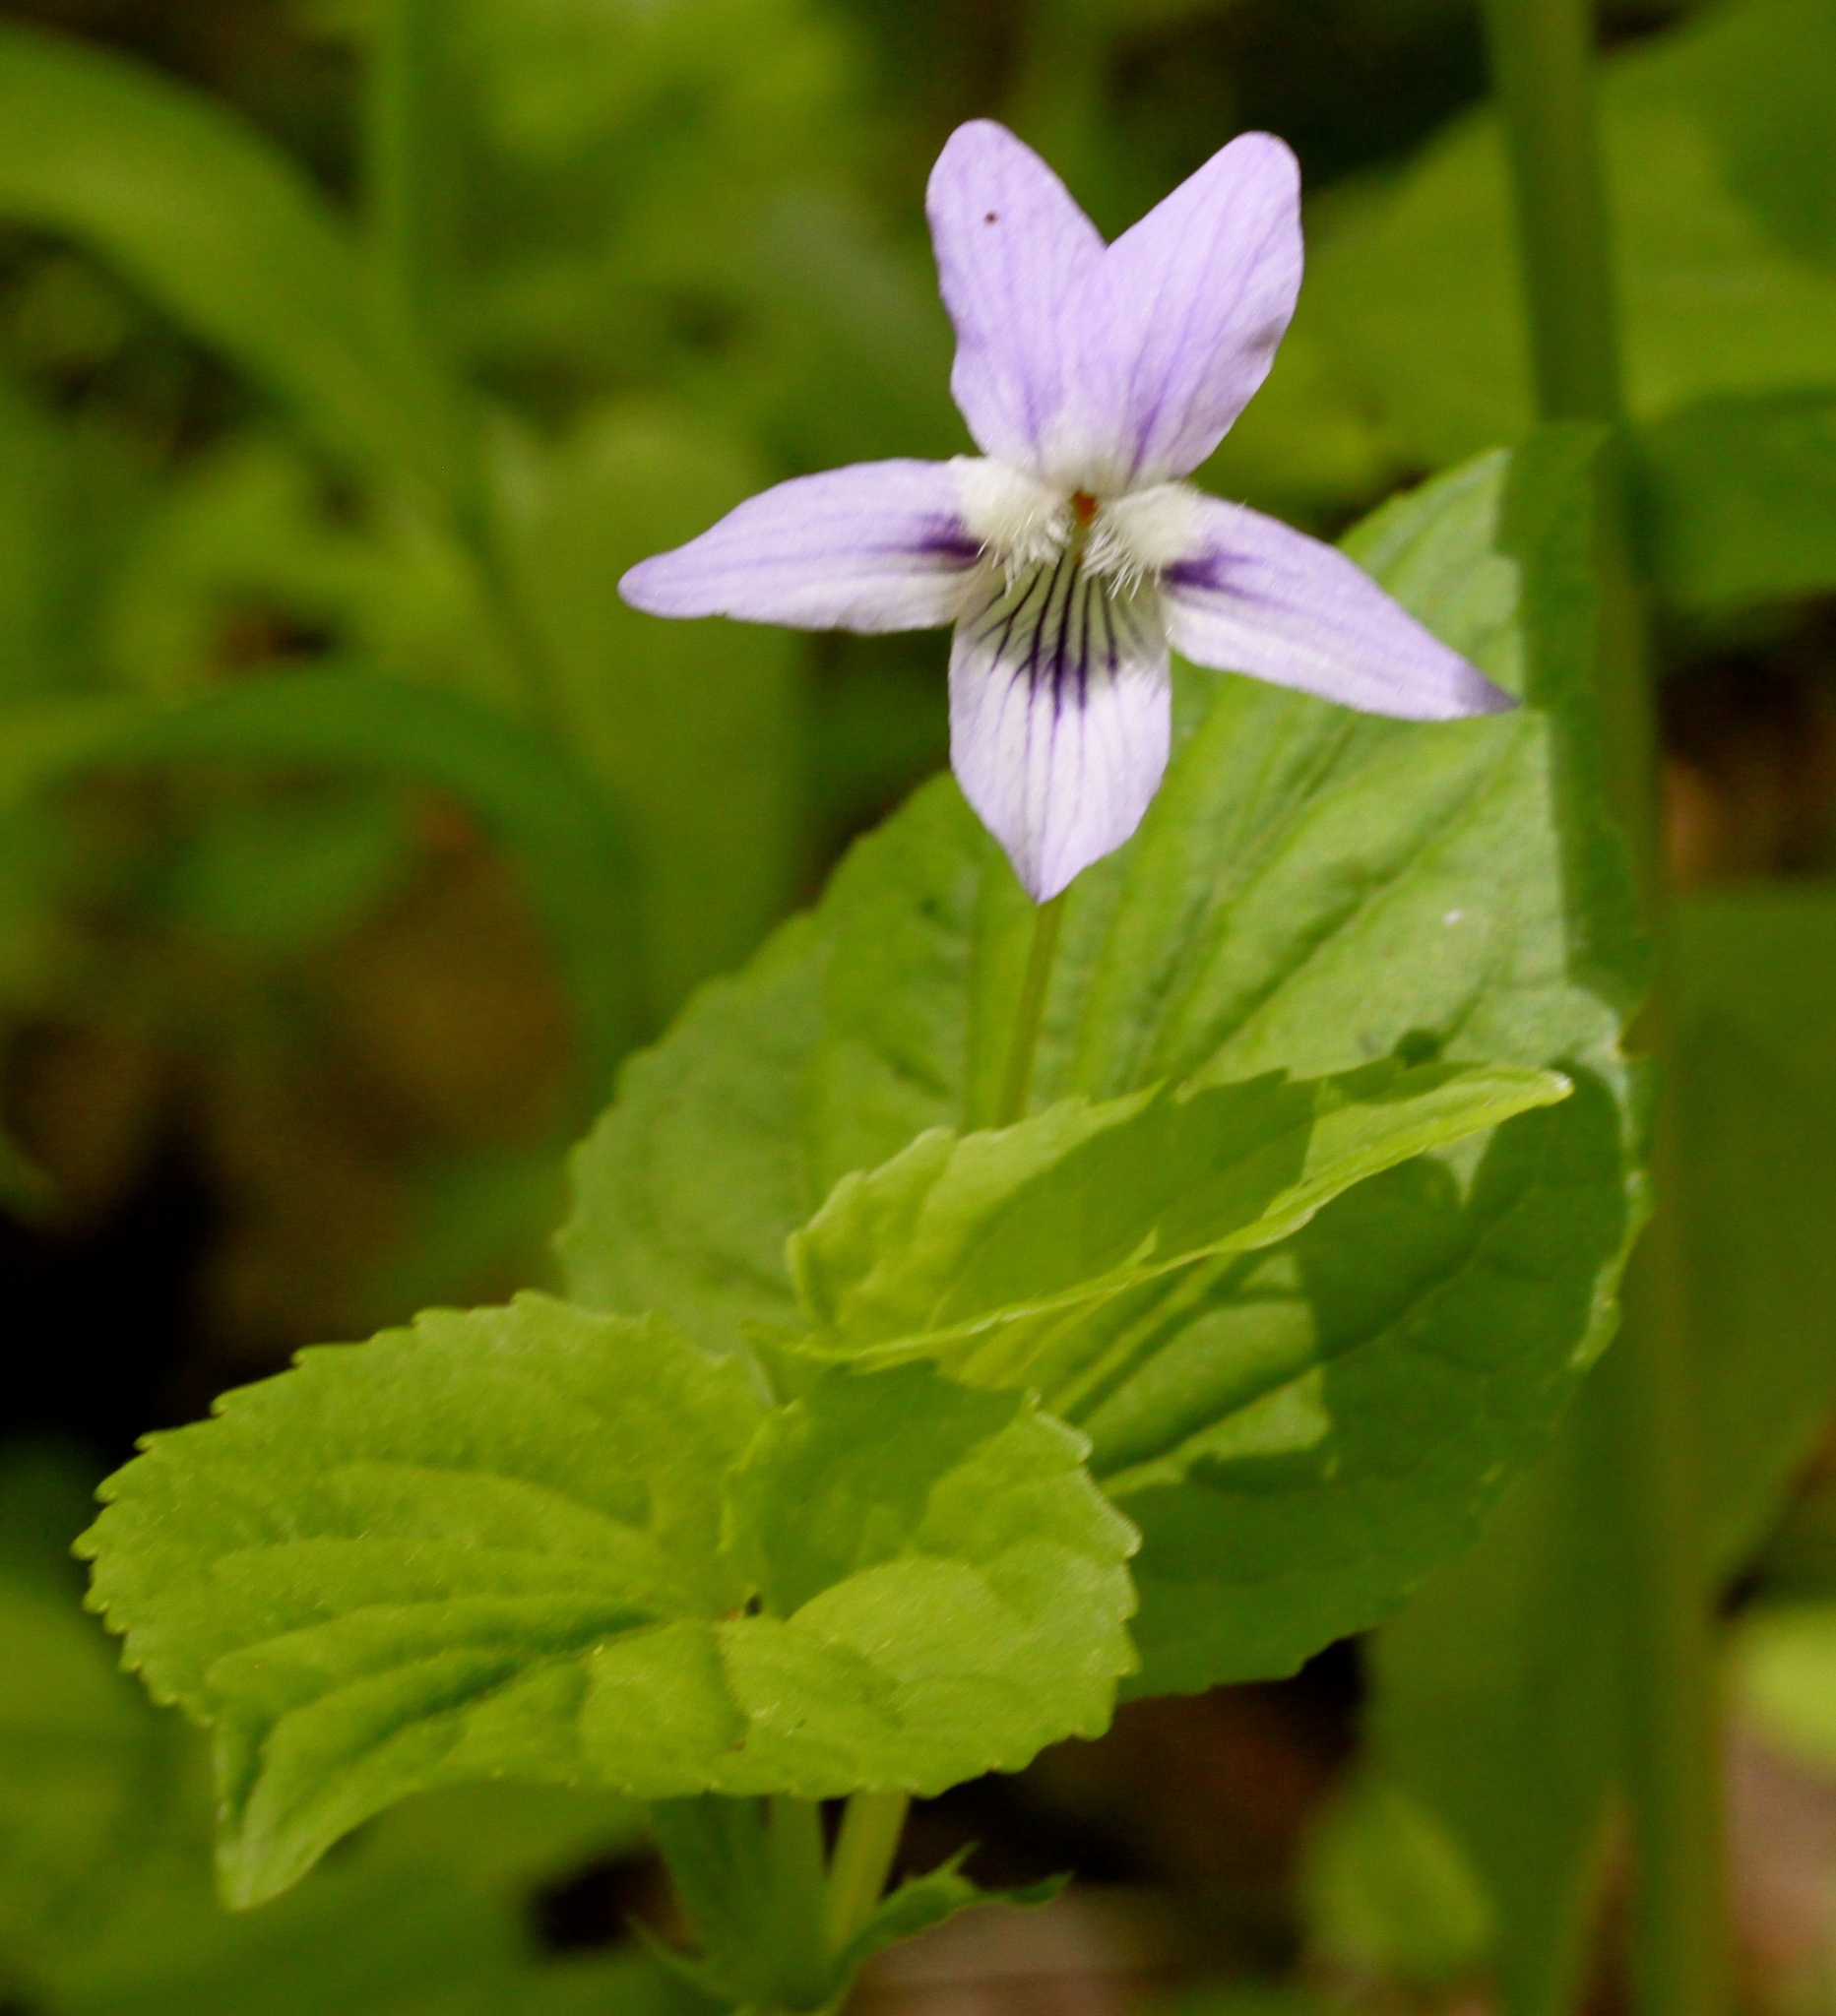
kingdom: Plantae
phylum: Tracheophyta
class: Magnoliopsida
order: Malpighiales
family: Violaceae
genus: Viola
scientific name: Viola brauniae
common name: Braun's violet
